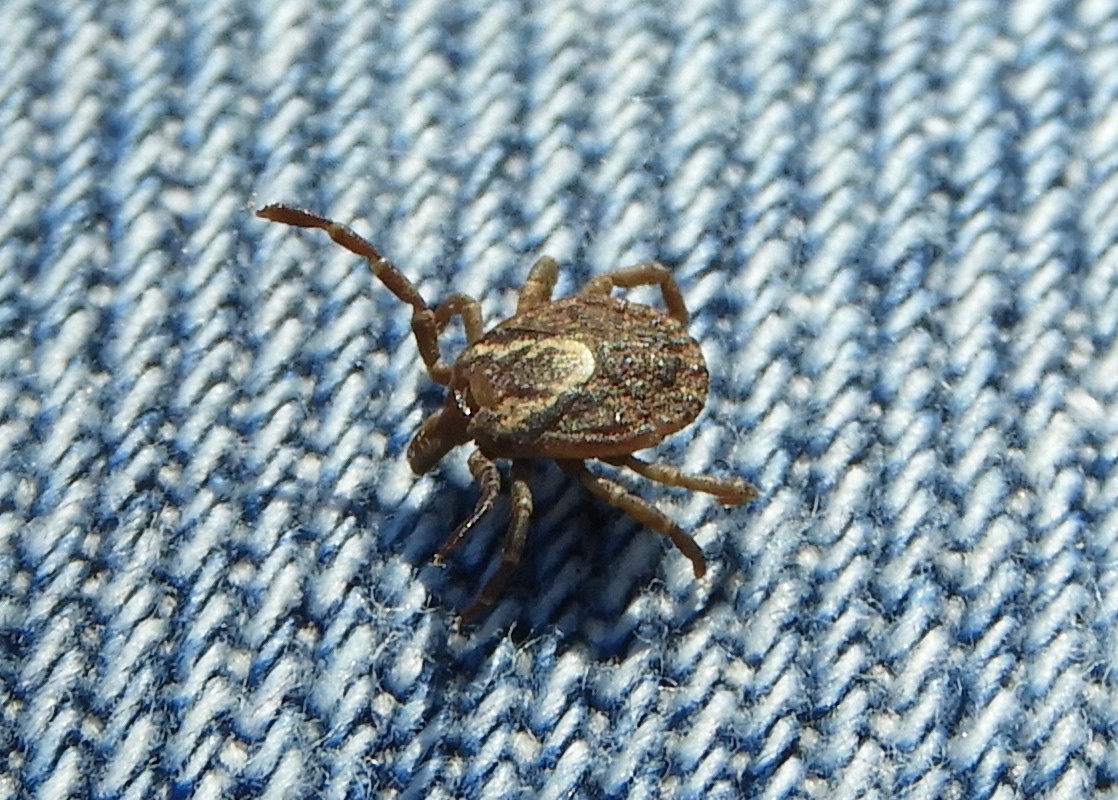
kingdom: Animalia
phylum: Arthropoda
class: Arachnida
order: Ixodida
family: Ixodidae
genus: Amblyomma
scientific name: Amblyomma
